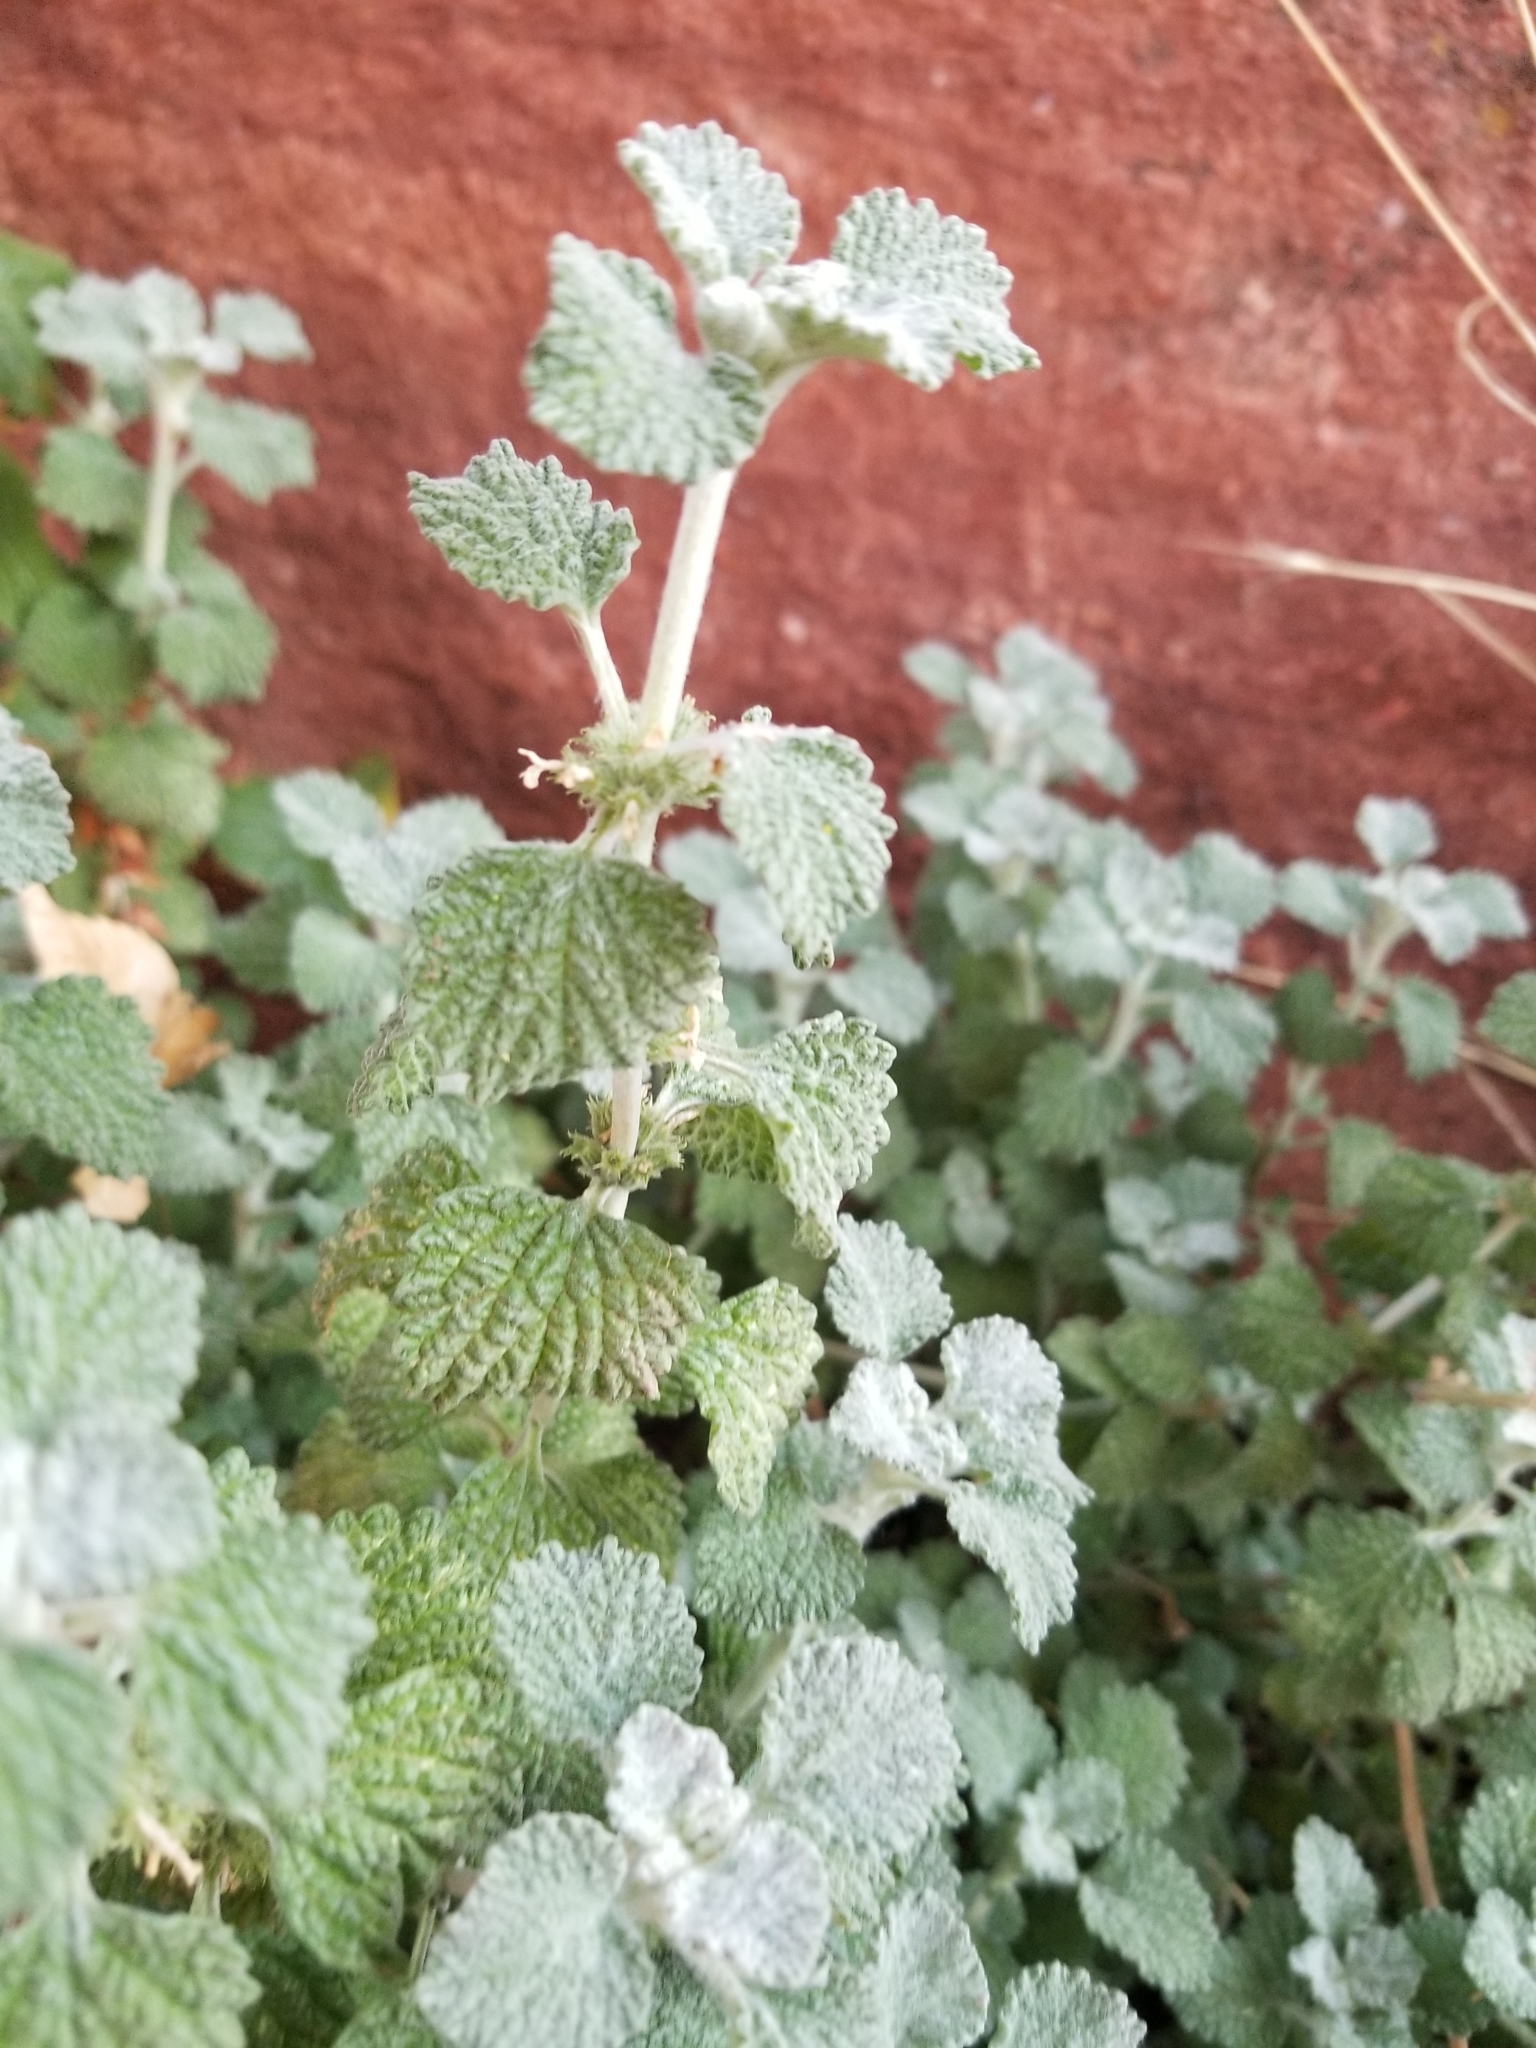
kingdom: Plantae
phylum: Tracheophyta
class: Magnoliopsida
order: Lamiales
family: Lamiaceae
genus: Marrubium
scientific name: Marrubium vulgare
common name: Horehound
